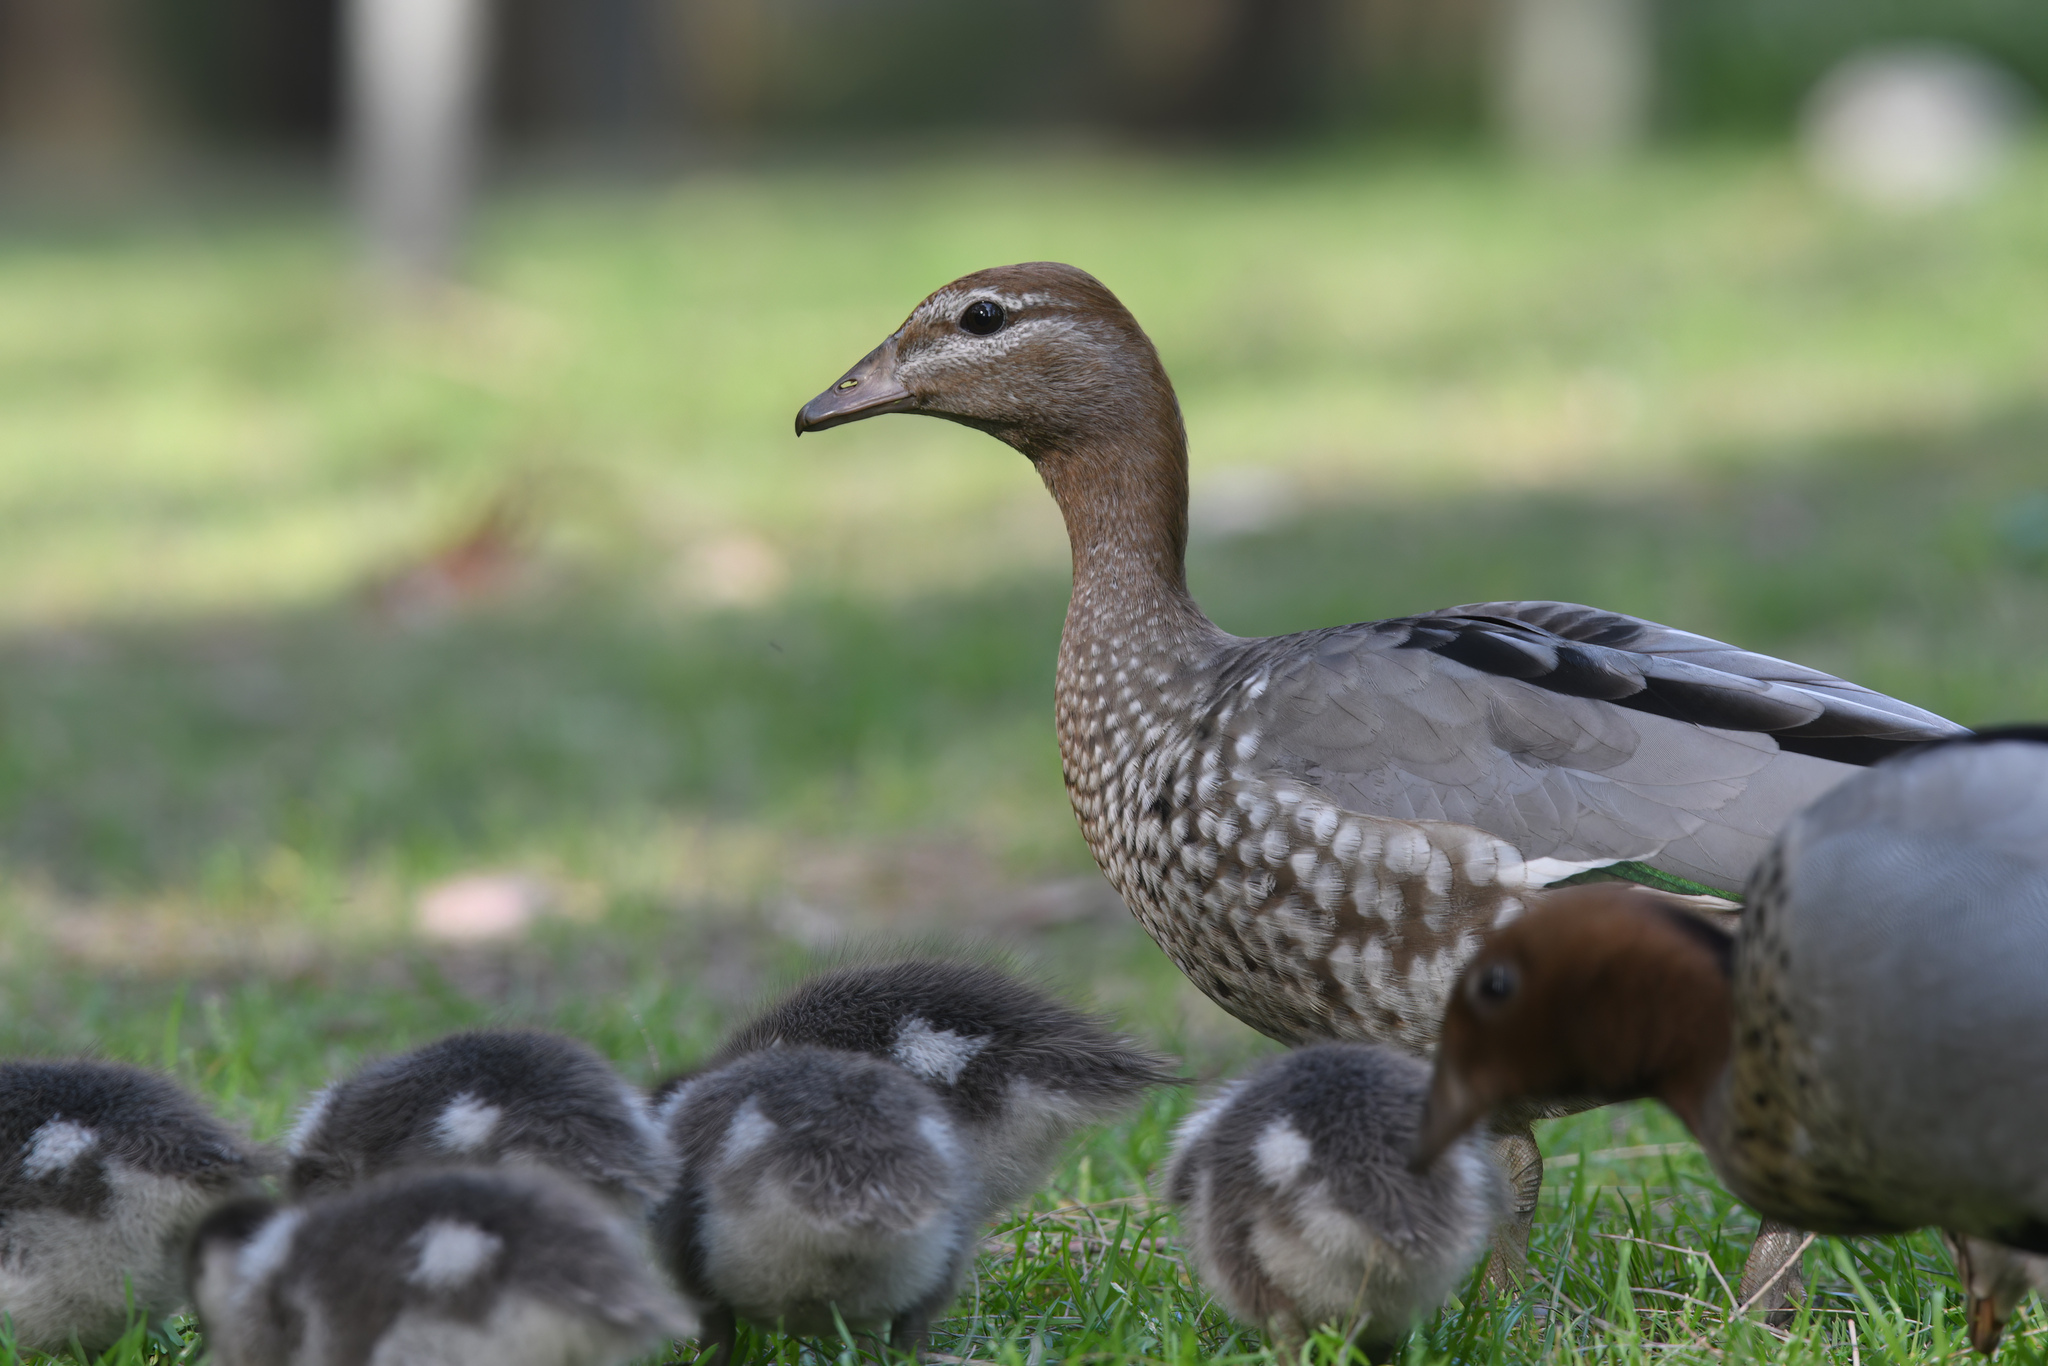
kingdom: Animalia
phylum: Chordata
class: Aves
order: Anseriformes
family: Anatidae
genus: Chenonetta
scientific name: Chenonetta jubata
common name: Maned duck
